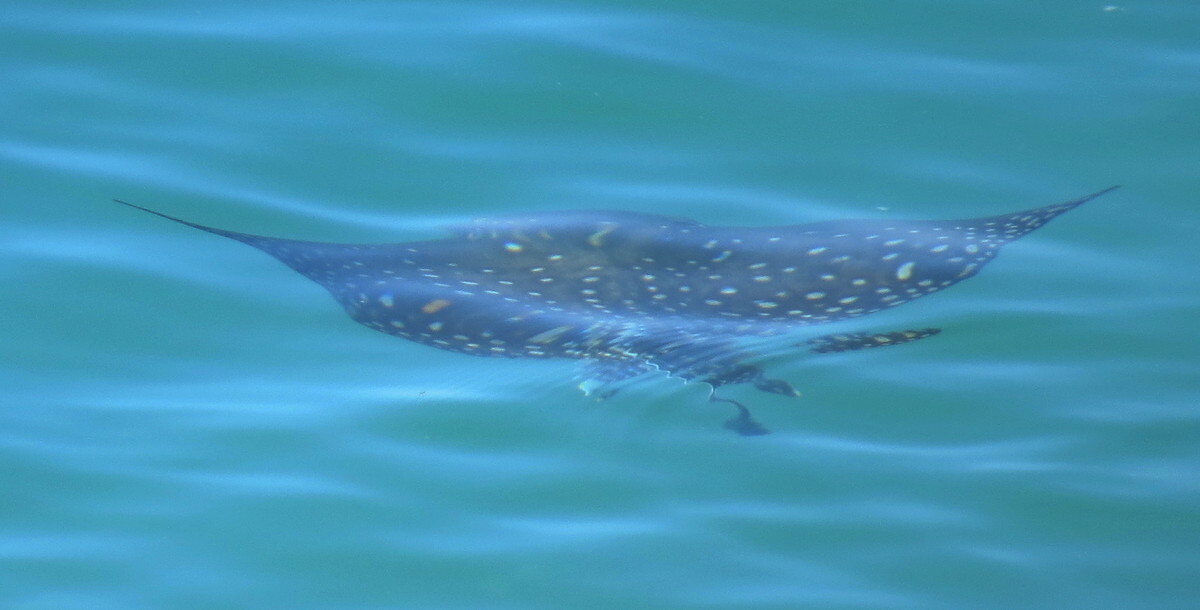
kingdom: Animalia
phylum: Chordata
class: Elasmobranchii
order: Myliobatiformes
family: Myliobatidae
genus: Aetobatus
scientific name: Aetobatus ocellatus
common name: Ocellated eagle ray
